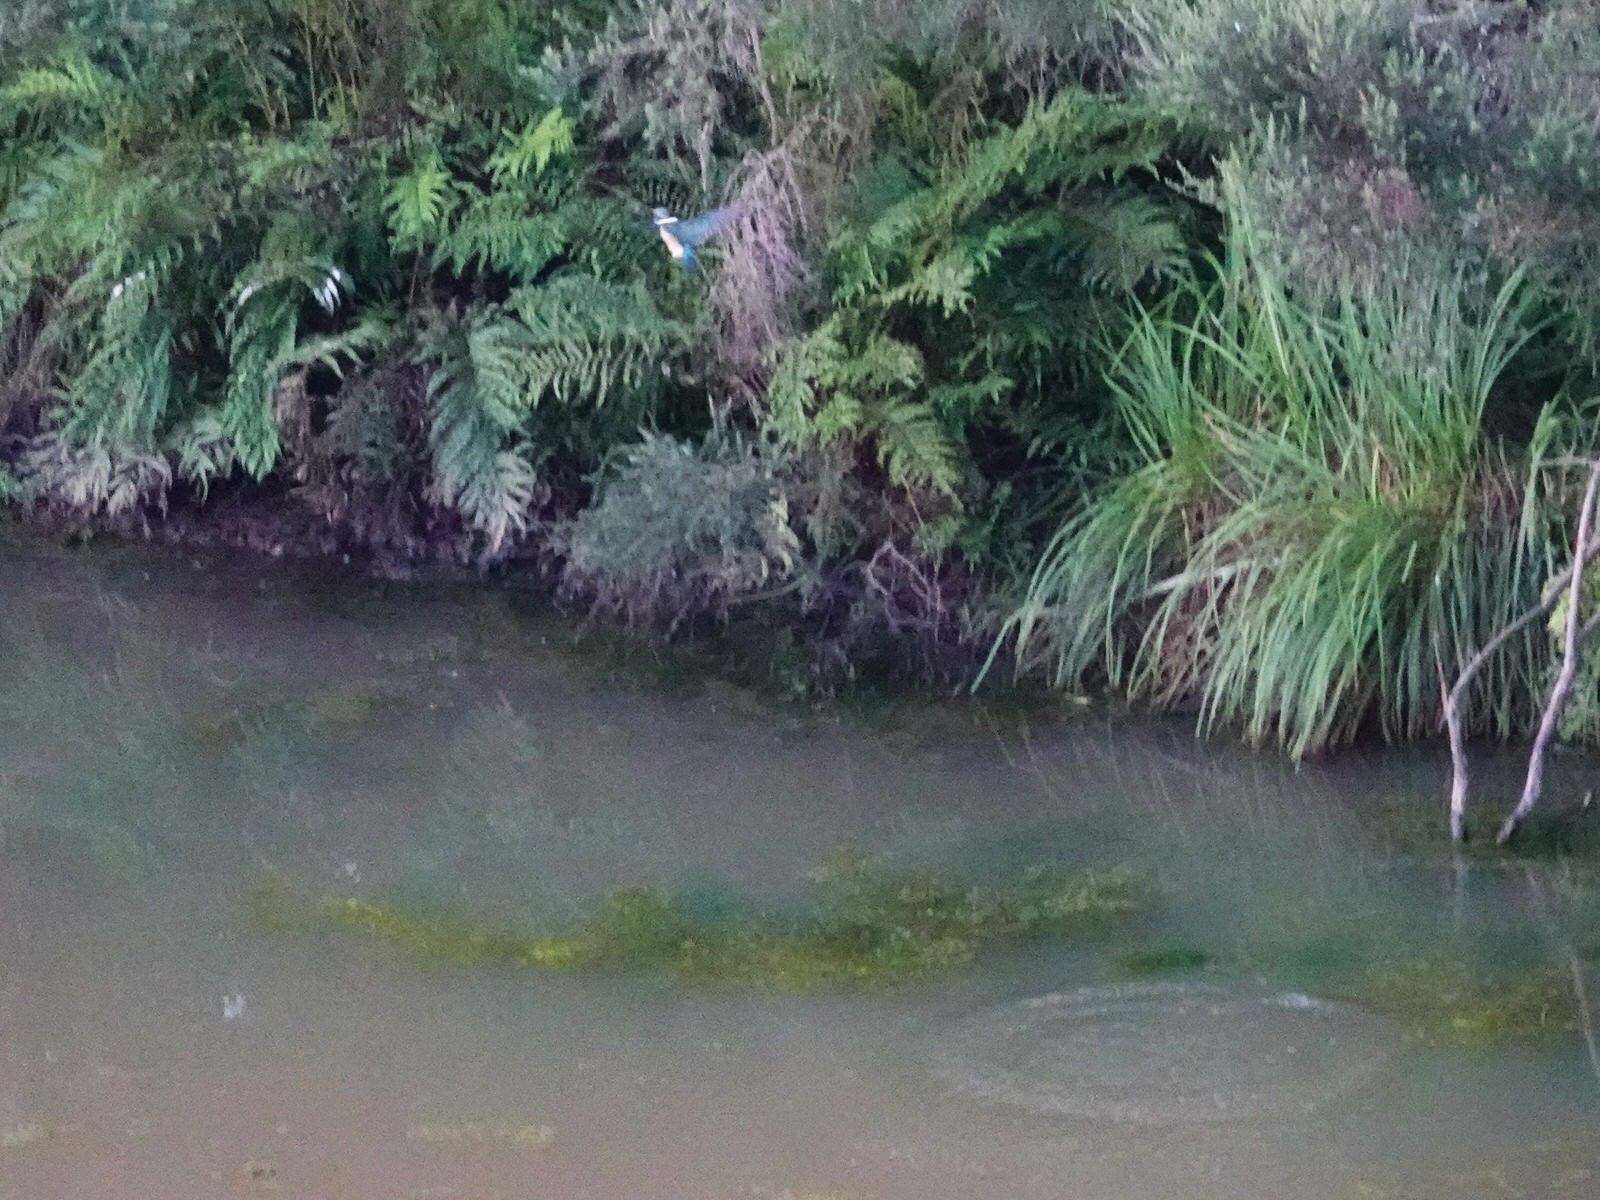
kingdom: Animalia
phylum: Chordata
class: Aves
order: Coraciiformes
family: Alcedinidae
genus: Todiramphus
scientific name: Todiramphus sanctus
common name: Sacred kingfisher
